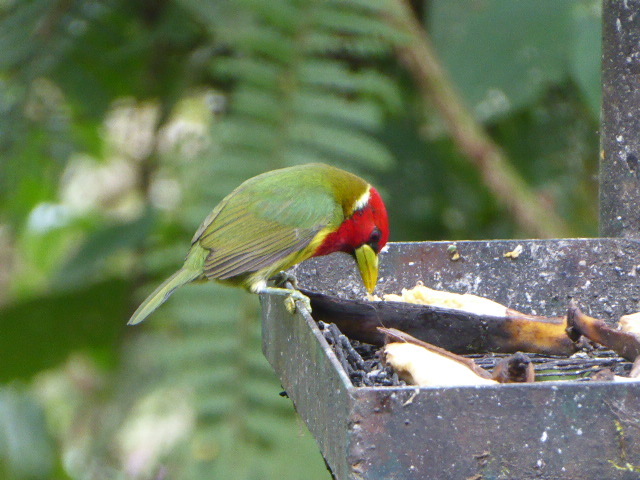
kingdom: Animalia
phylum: Chordata
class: Aves
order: Piciformes
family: Capitonidae
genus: Eubucco
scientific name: Eubucco bourcierii
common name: Red-headed barbet
